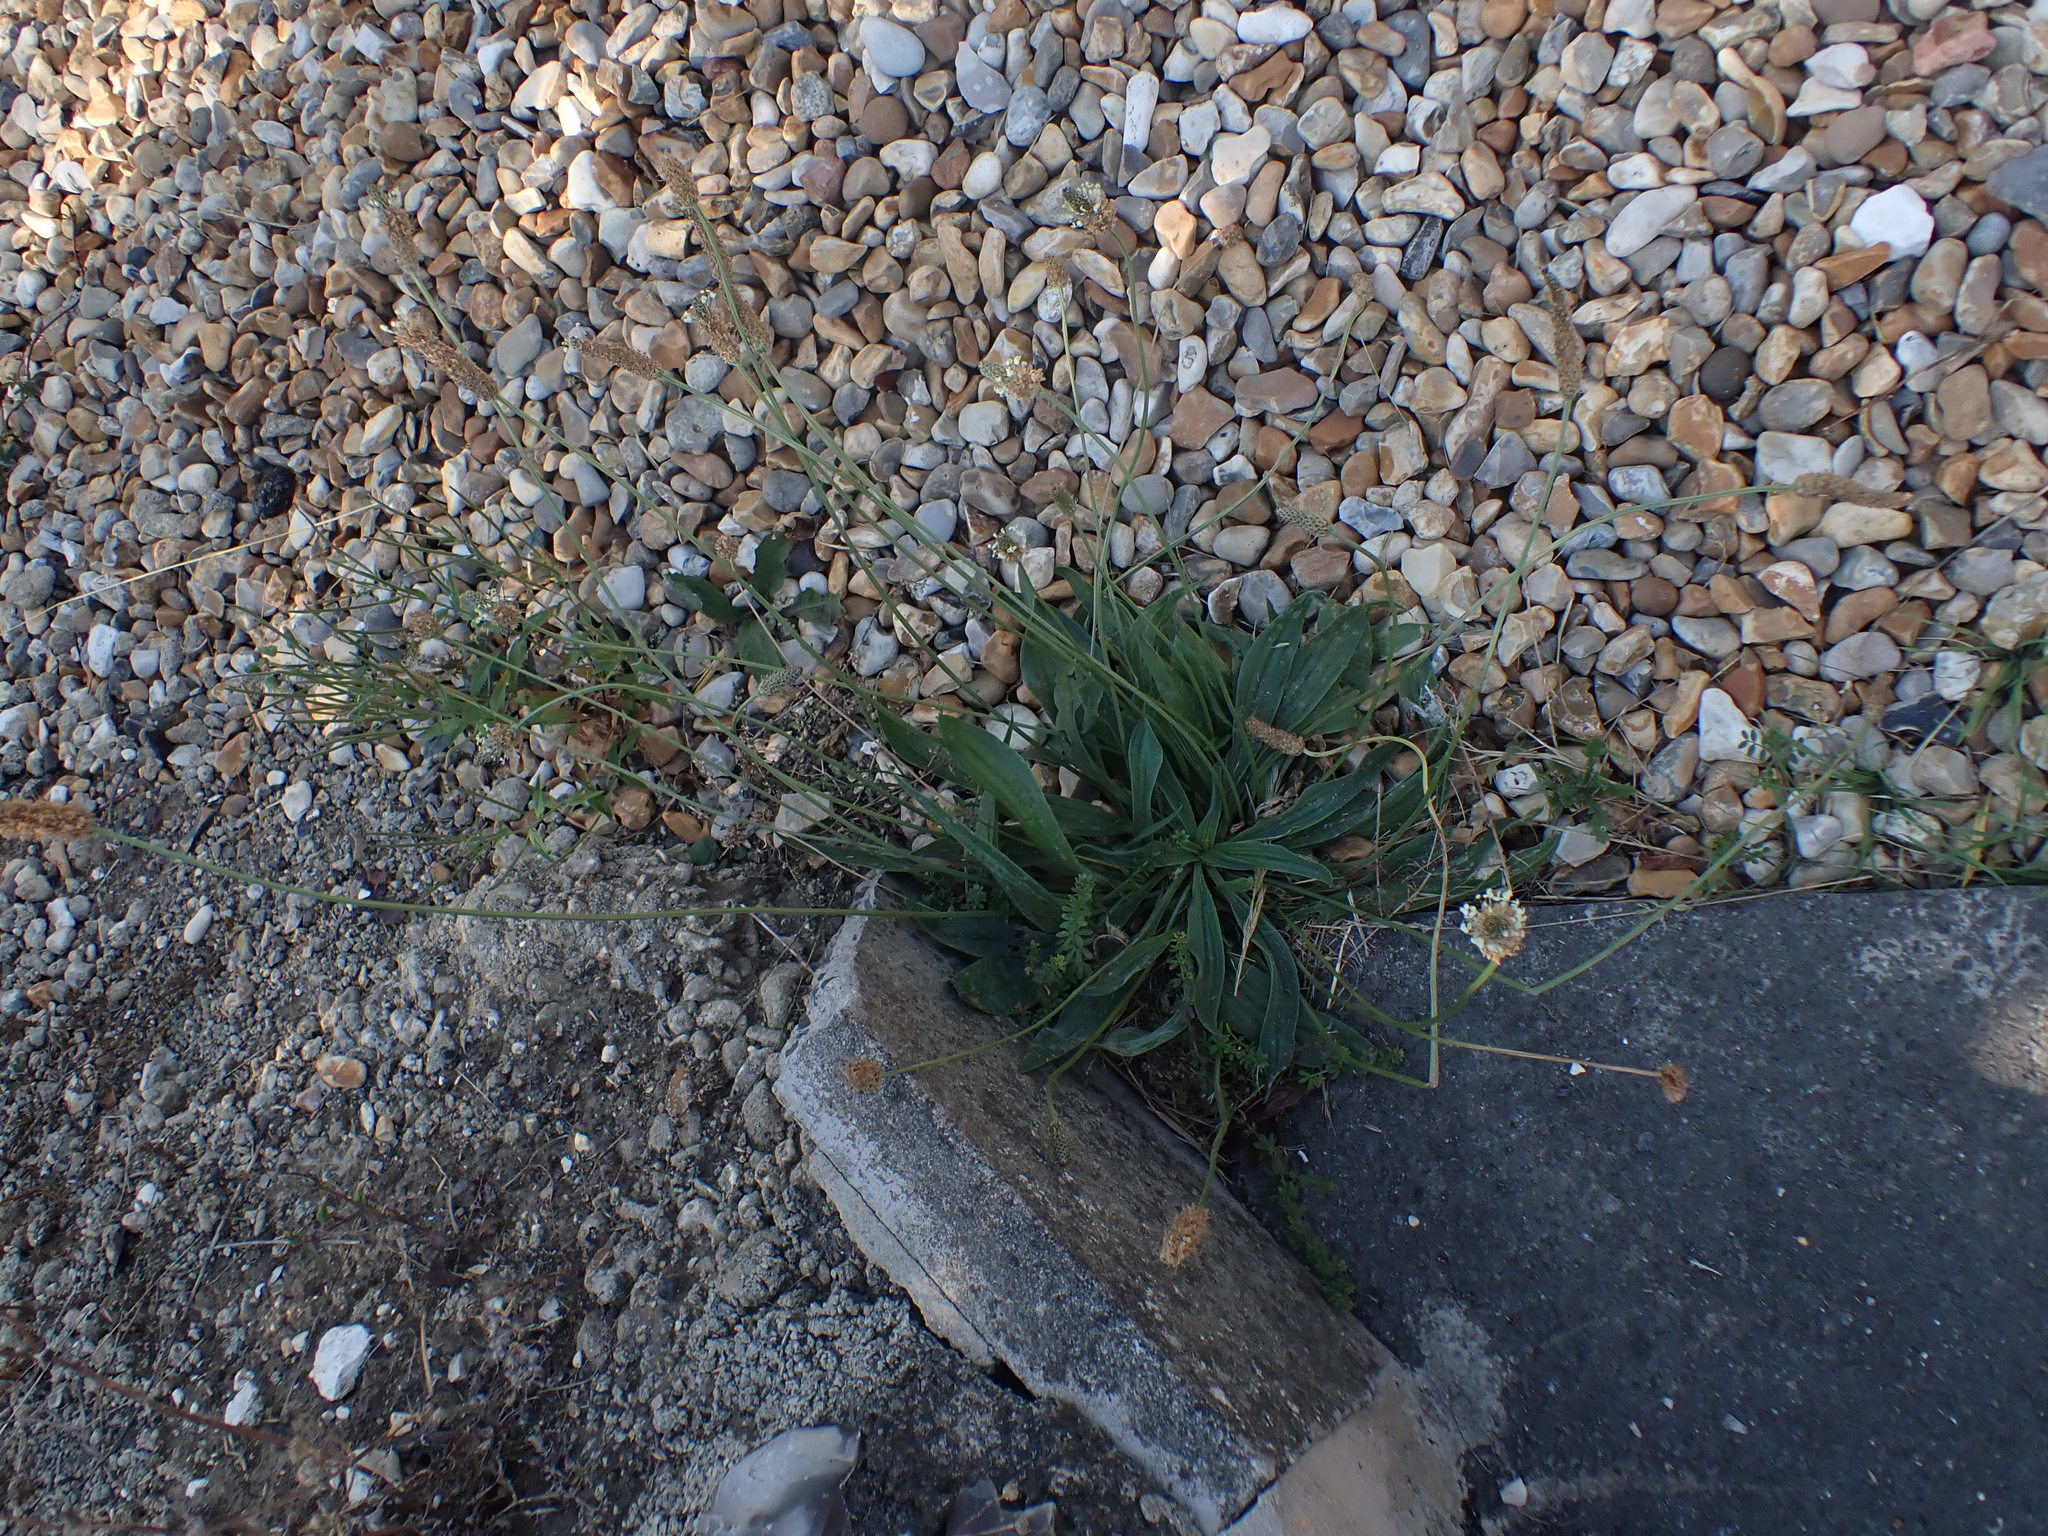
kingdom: Plantae
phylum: Tracheophyta
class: Magnoliopsida
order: Lamiales
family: Plantaginaceae
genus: Plantago
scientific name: Plantago lanceolata
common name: Ribwort plantain
